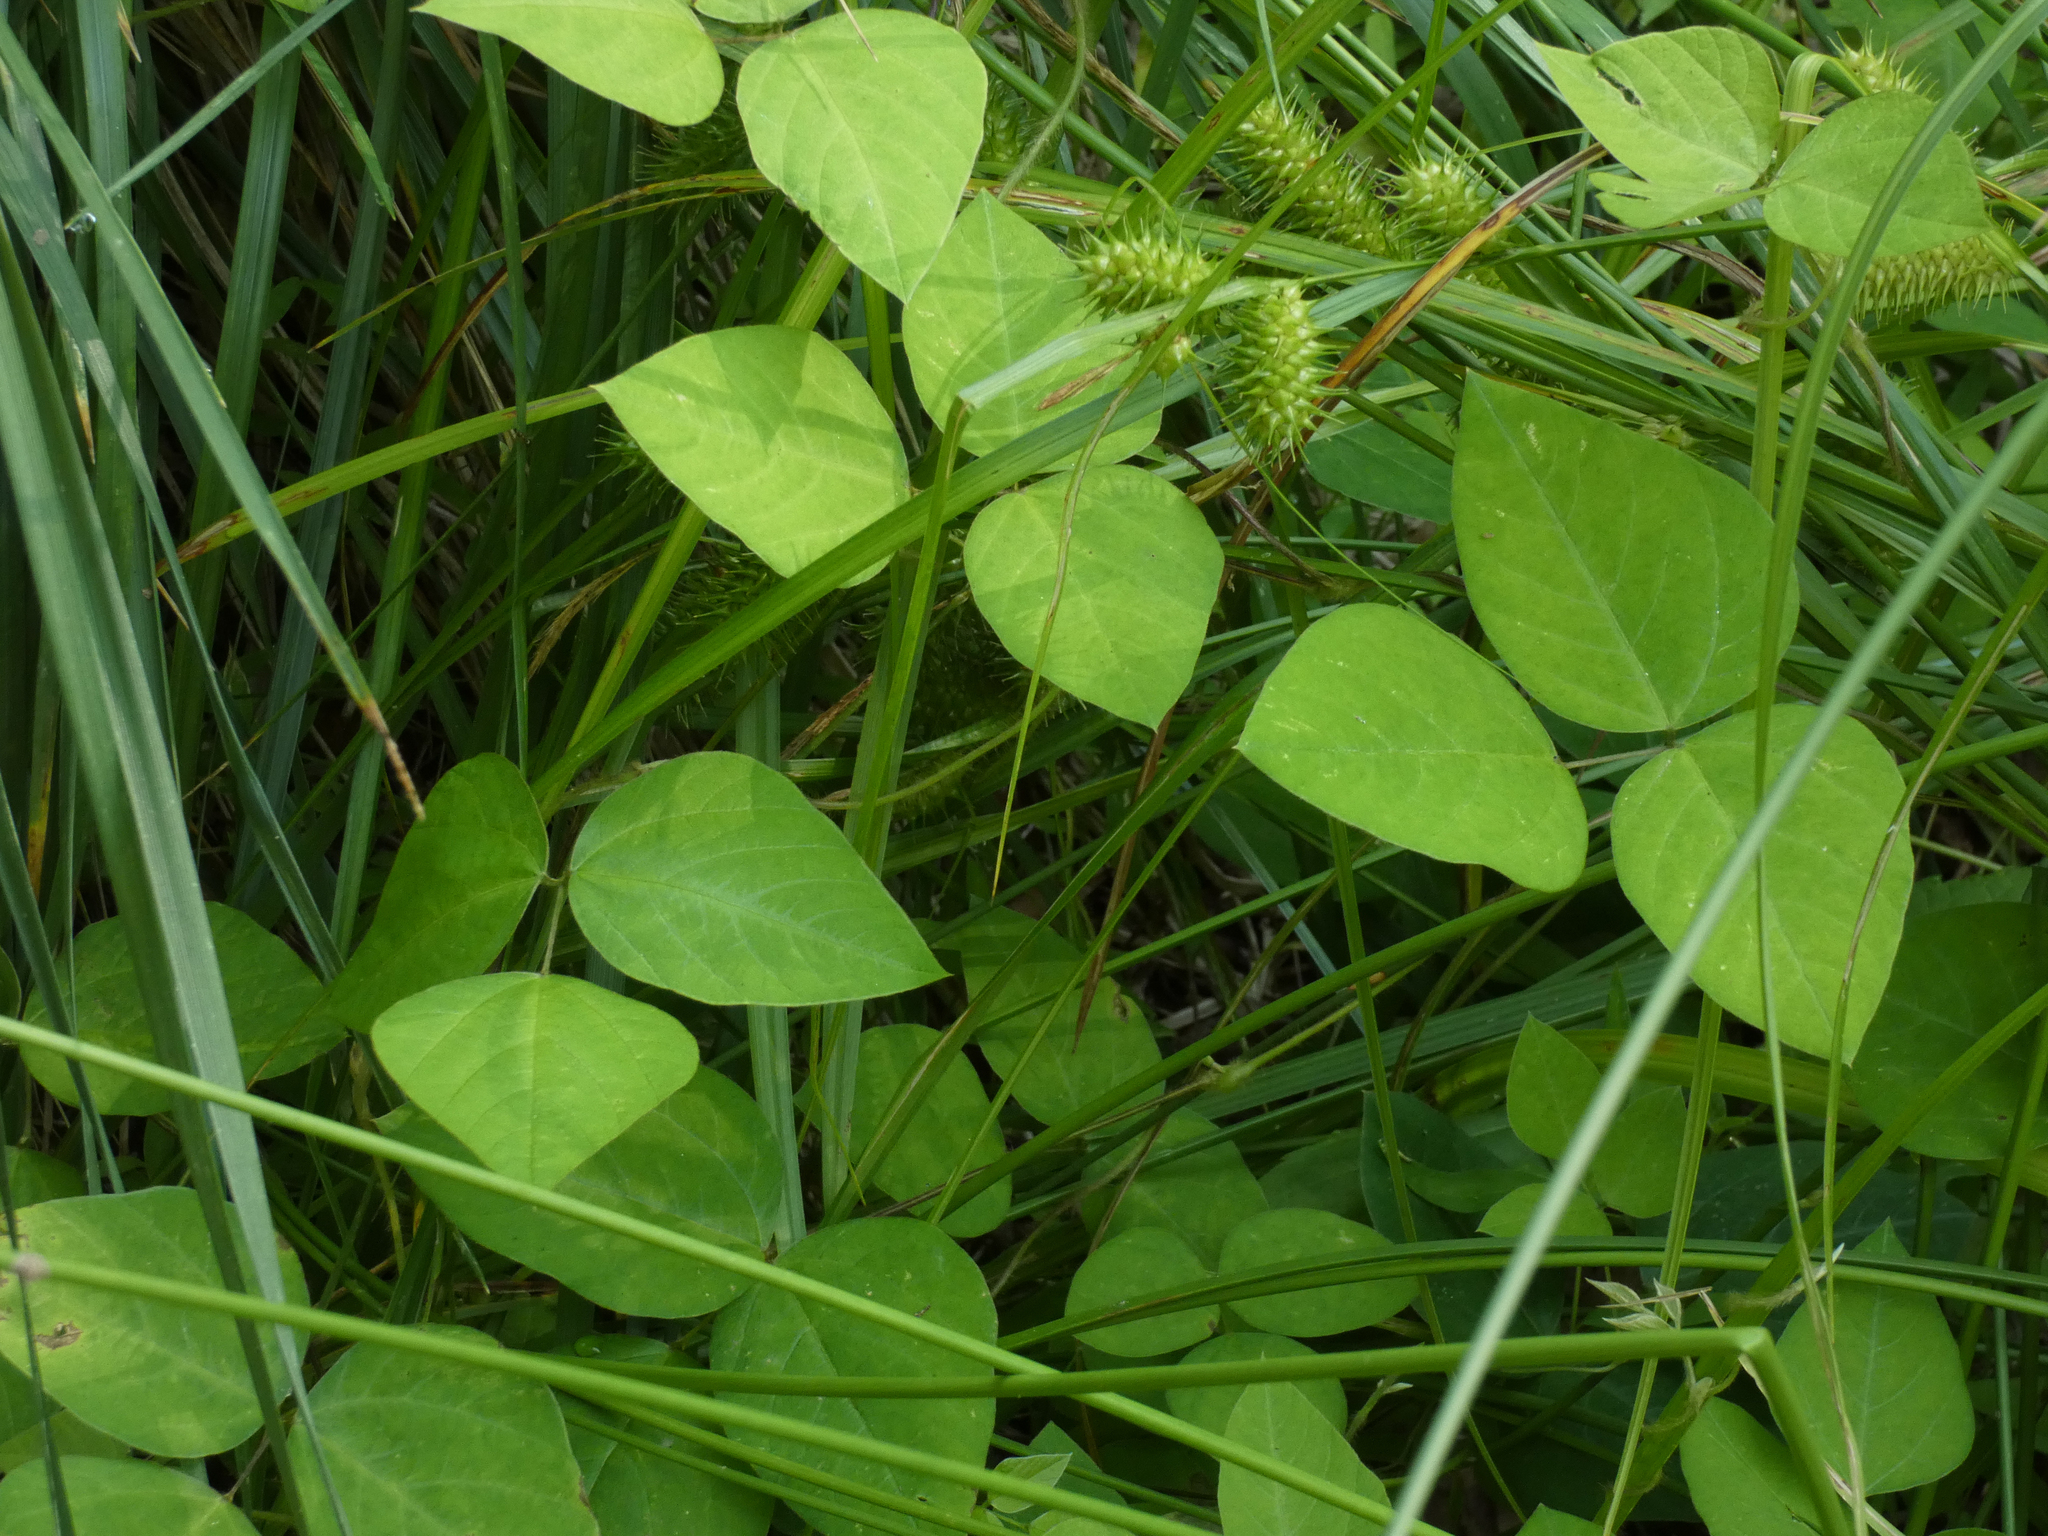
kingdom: Plantae
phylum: Tracheophyta
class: Magnoliopsida
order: Fabales
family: Fabaceae
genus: Amphicarpaea
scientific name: Amphicarpaea bracteata
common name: American hog peanut
